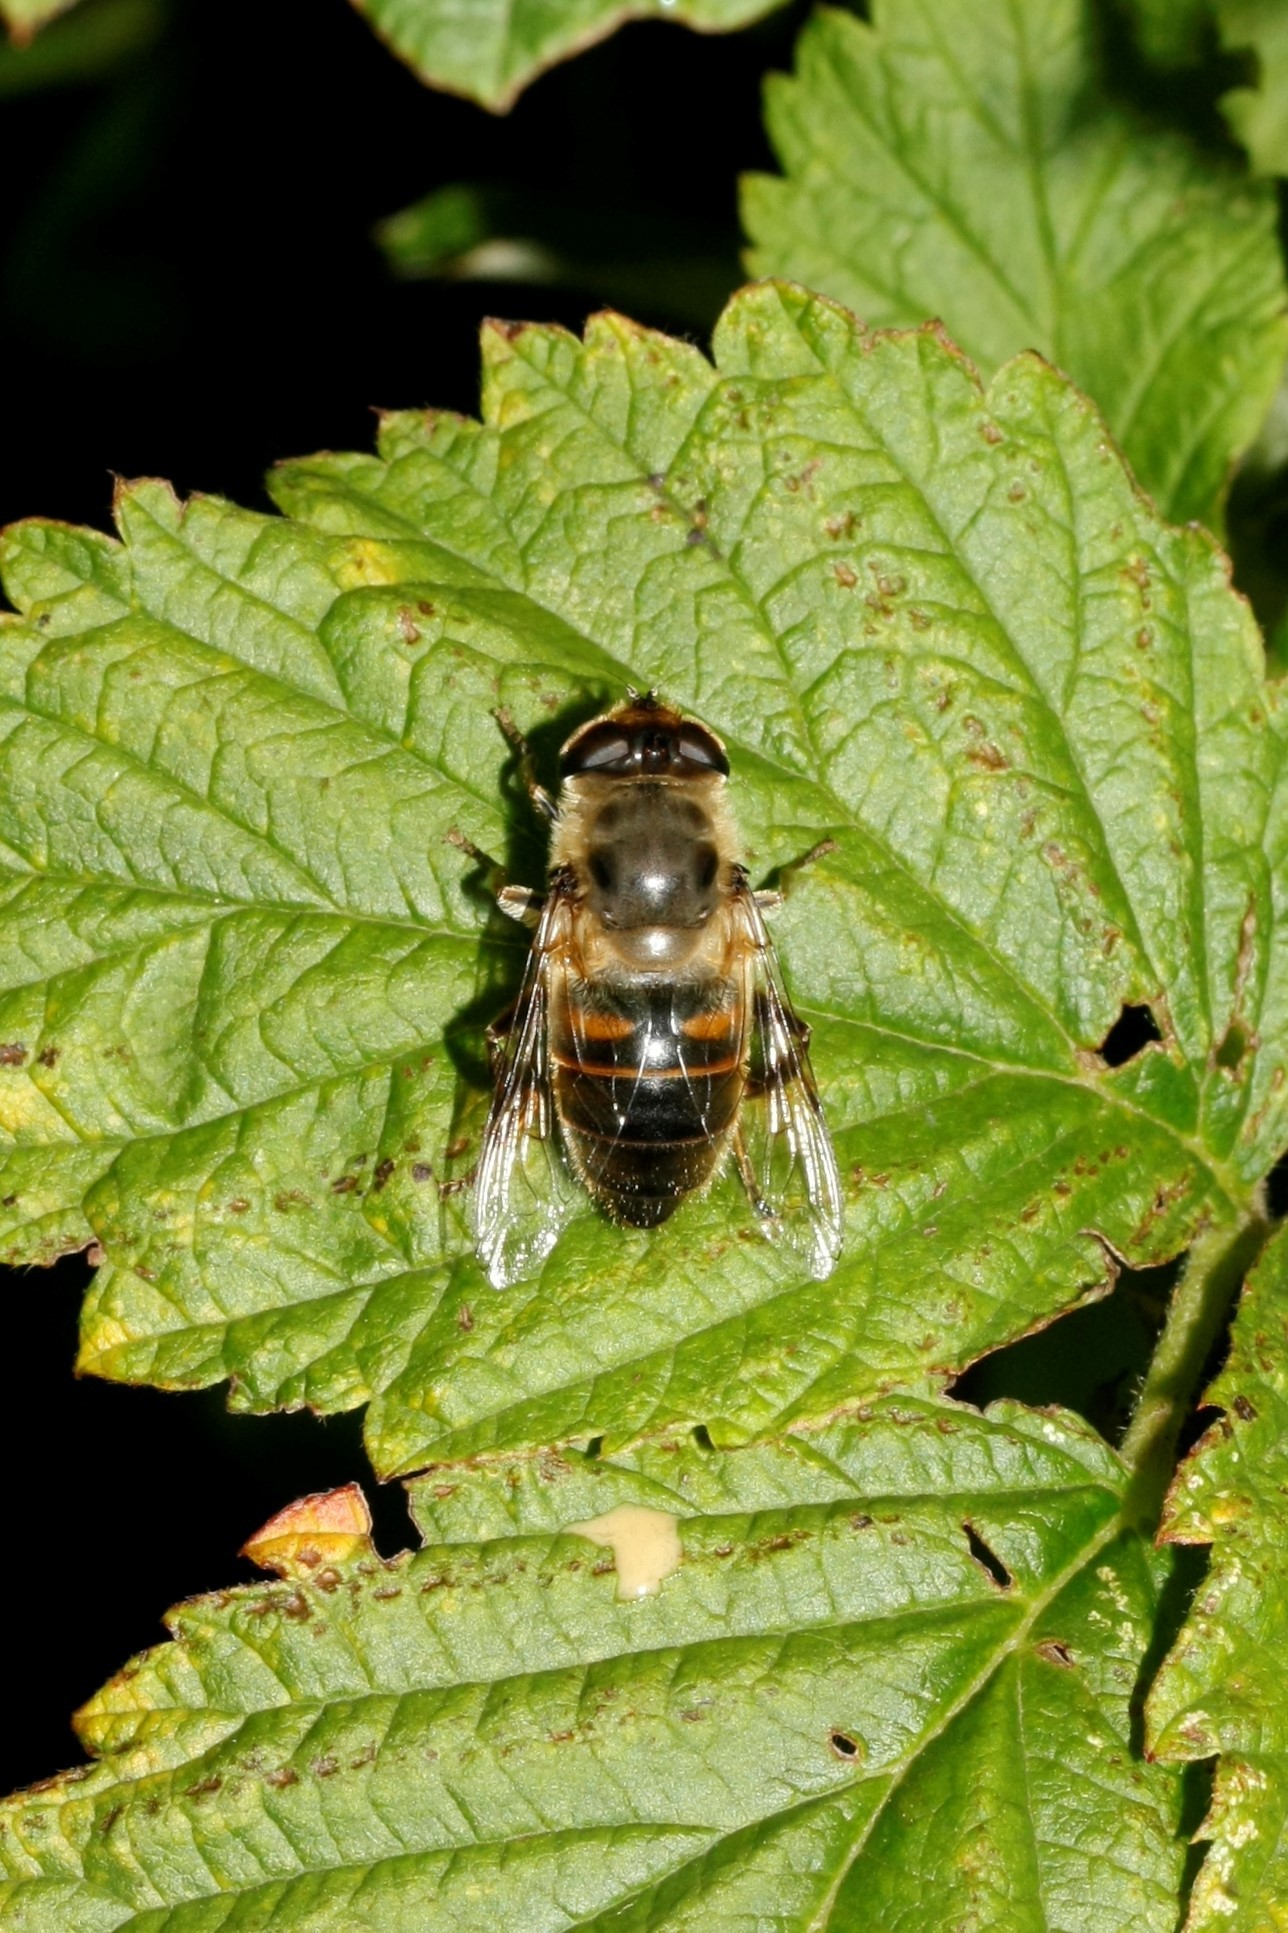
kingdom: Animalia
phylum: Arthropoda
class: Insecta
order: Diptera
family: Syrphidae
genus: Eristalis
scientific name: Eristalis tenax
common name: Drone fly
